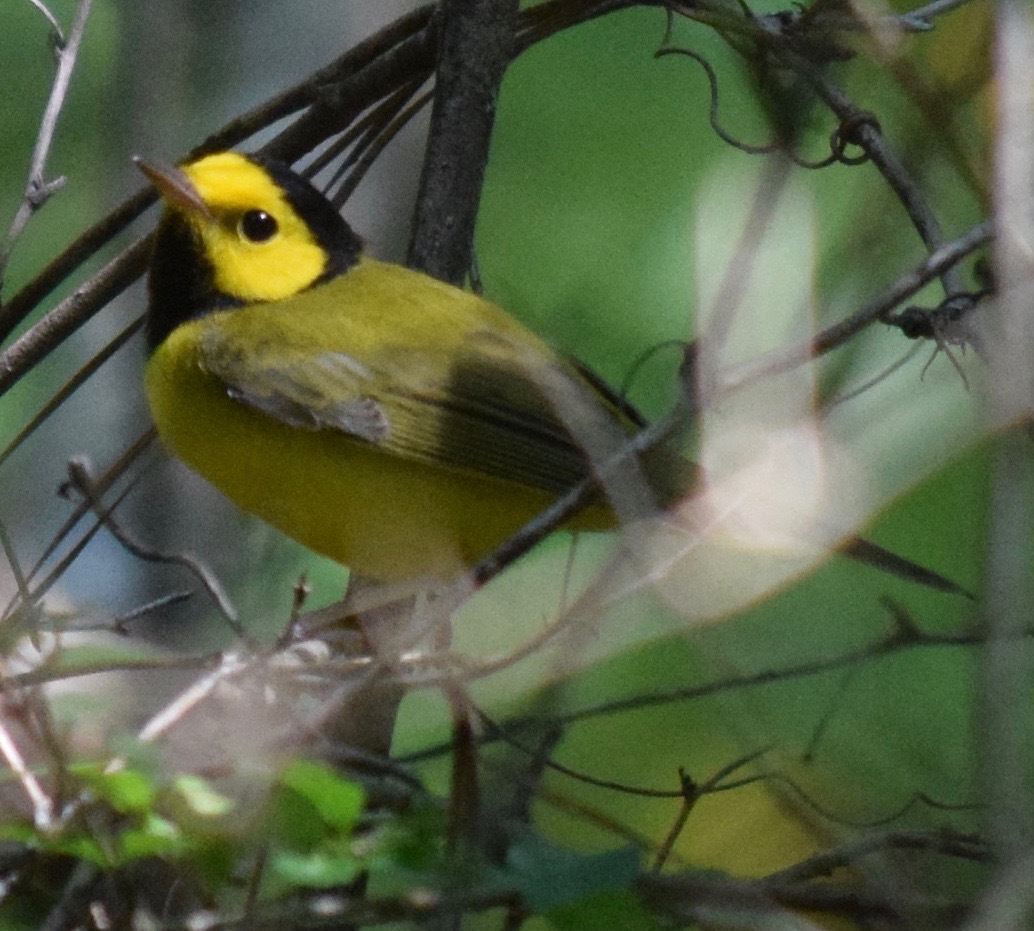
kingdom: Animalia
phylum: Chordata
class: Aves
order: Passeriformes
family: Parulidae
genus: Setophaga
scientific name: Setophaga citrina
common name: Hooded warbler
